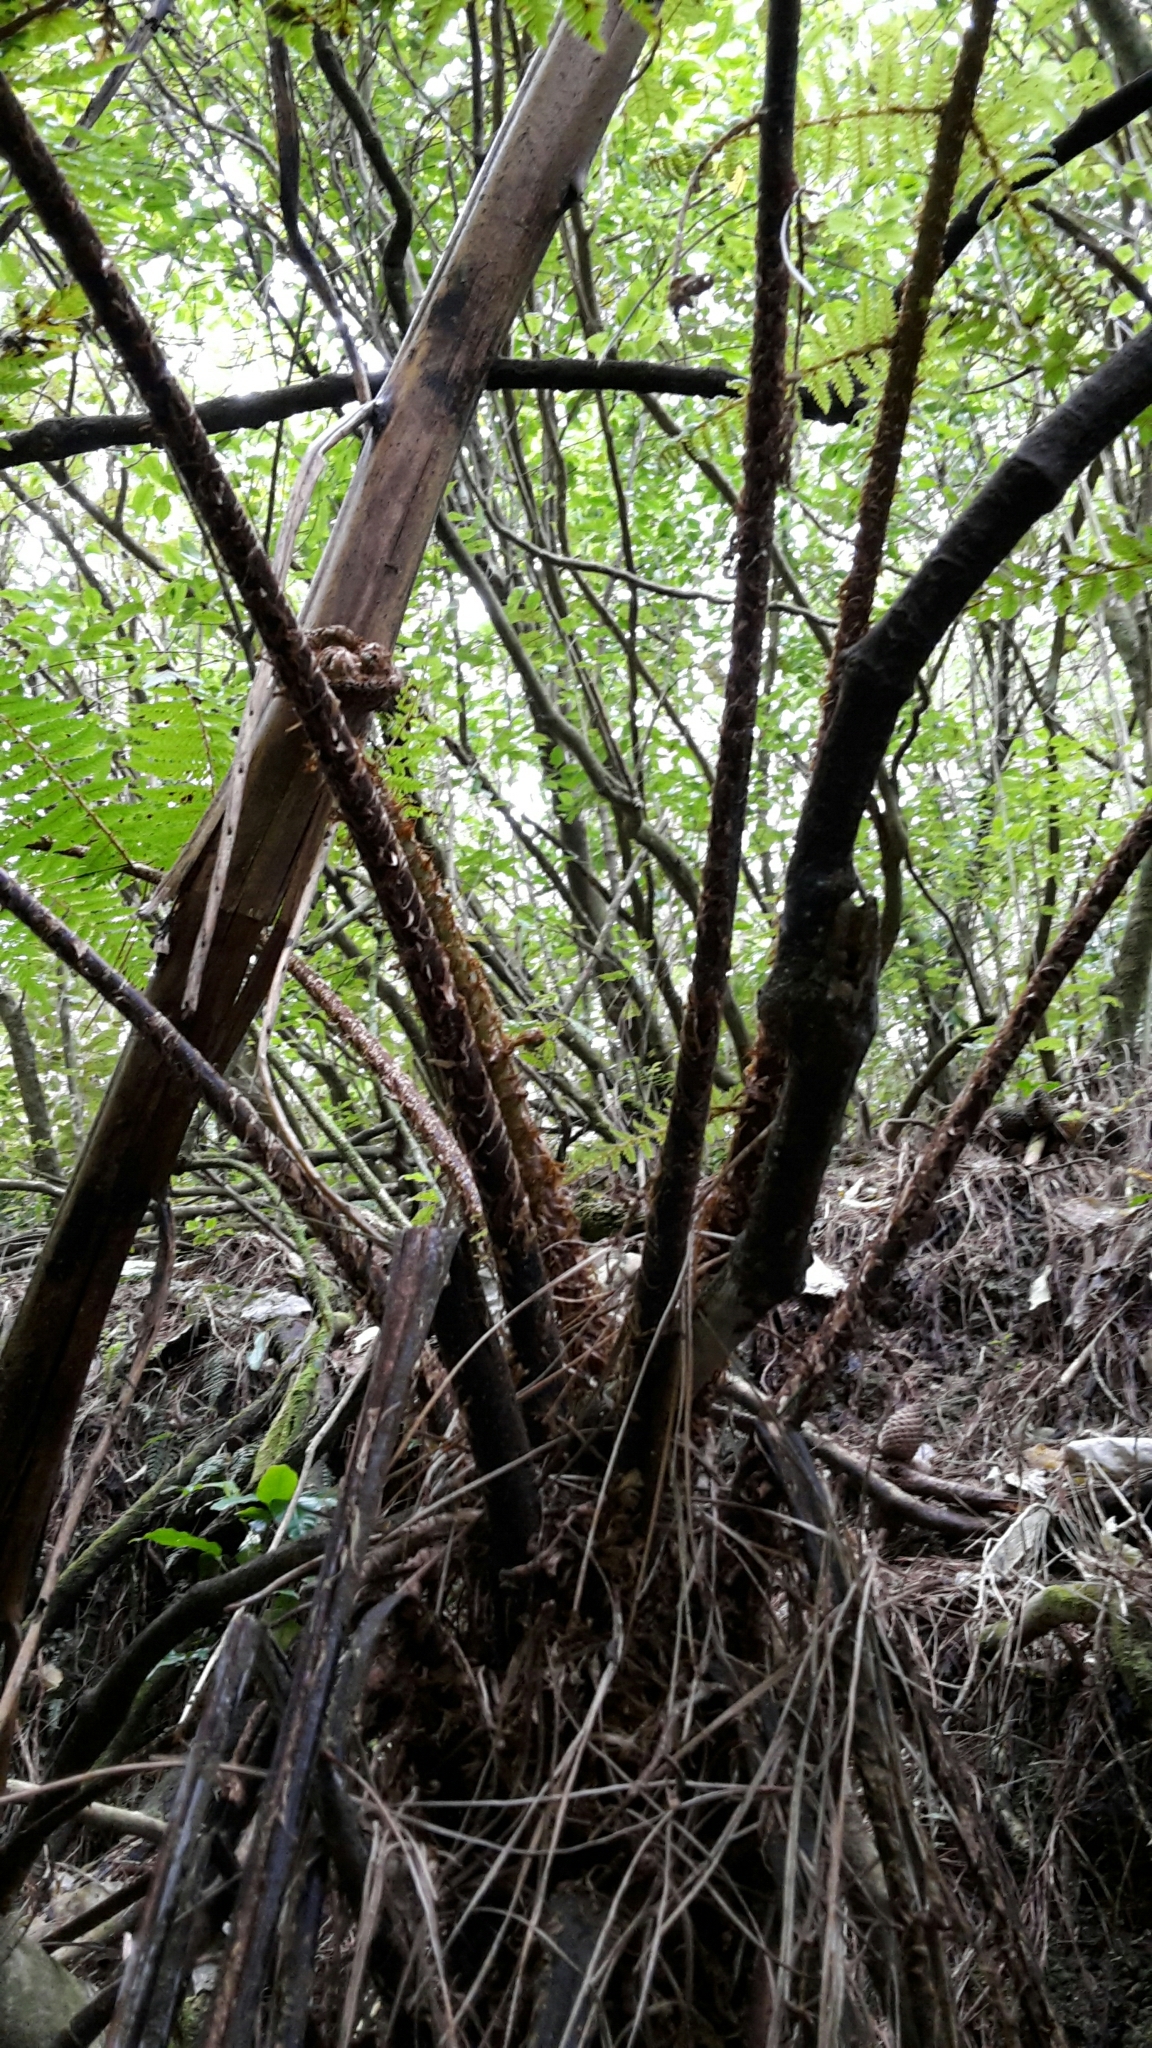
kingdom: Plantae
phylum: Tracheophyta
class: Polypodiopsida
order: Cyatheales
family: Cyatheaceae
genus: Cyathea
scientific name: Cyathea cunninghamii
